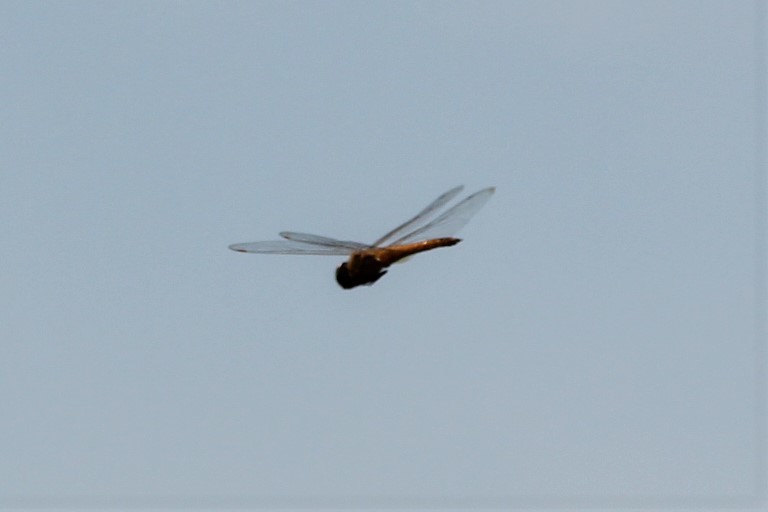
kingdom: Animalia
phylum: Arthropoda
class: Insecta
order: Odonata
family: Libellulidae
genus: Pantala
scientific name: Pantala flavescens
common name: Wandering glider
